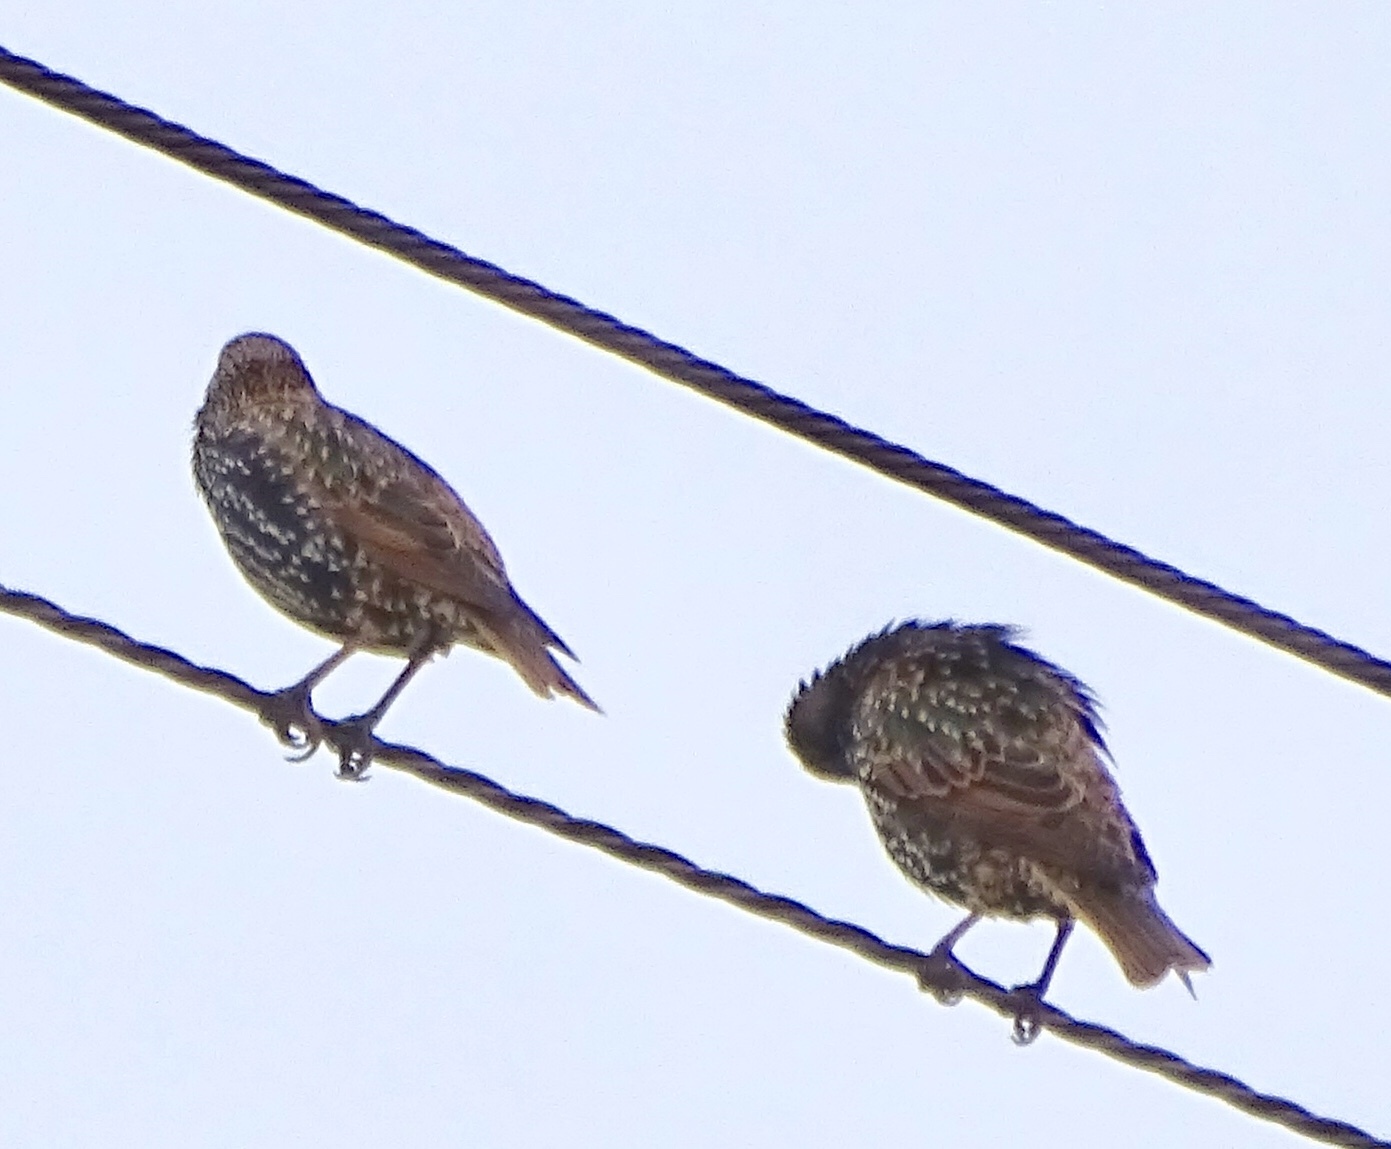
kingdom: Animalia
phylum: Chordata
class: Aves
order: Passeriformes
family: Sturnidae
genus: Sturnus
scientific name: Sturnus vulgaris
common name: Common starling
